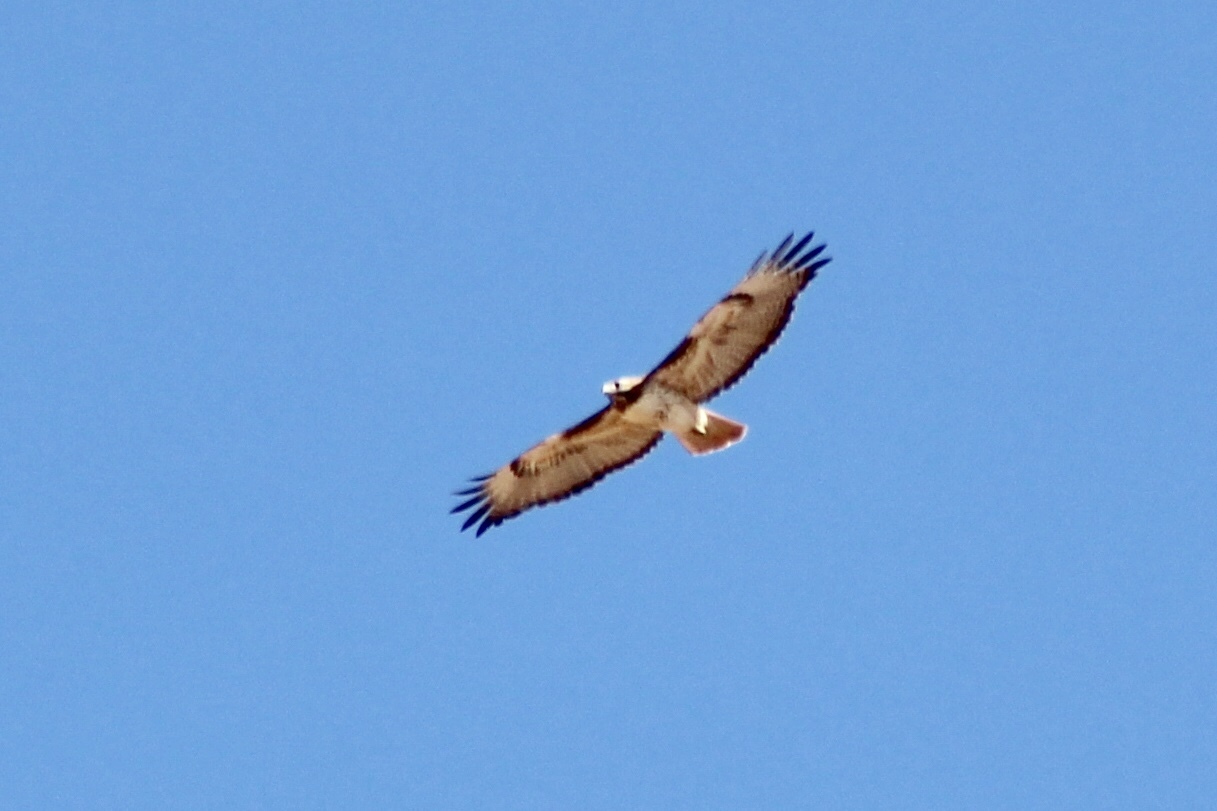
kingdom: Animalia
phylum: Chordata
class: Aves
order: Accipitriformes
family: Accipitridae
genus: Buteo
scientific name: Buteo jamaicensis
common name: Red-tailed hawk
